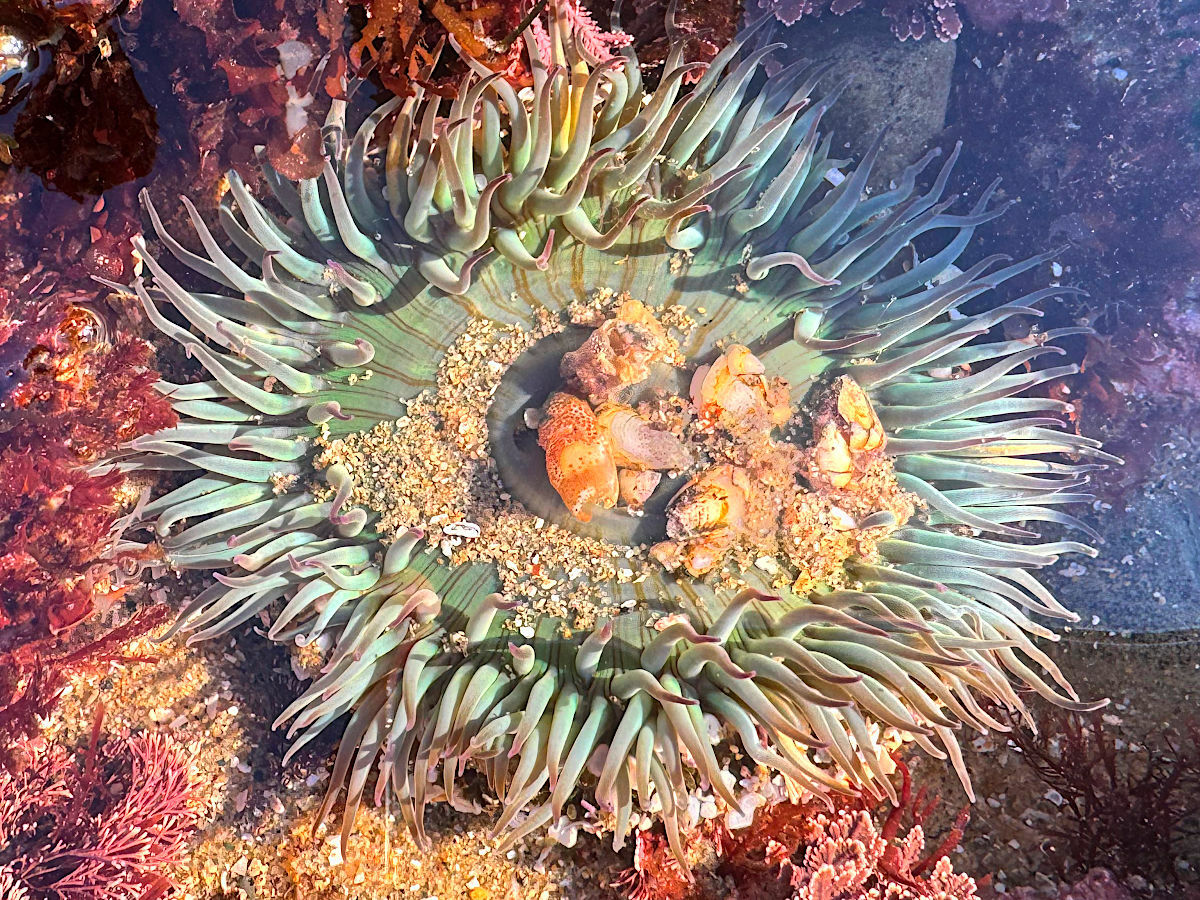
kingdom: Animalia
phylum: Cnidaria
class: Anthozoa
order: Actiniaria
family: Actiniidae
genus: Anthopleura
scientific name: Anthopleura sola
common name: Sun anemone
